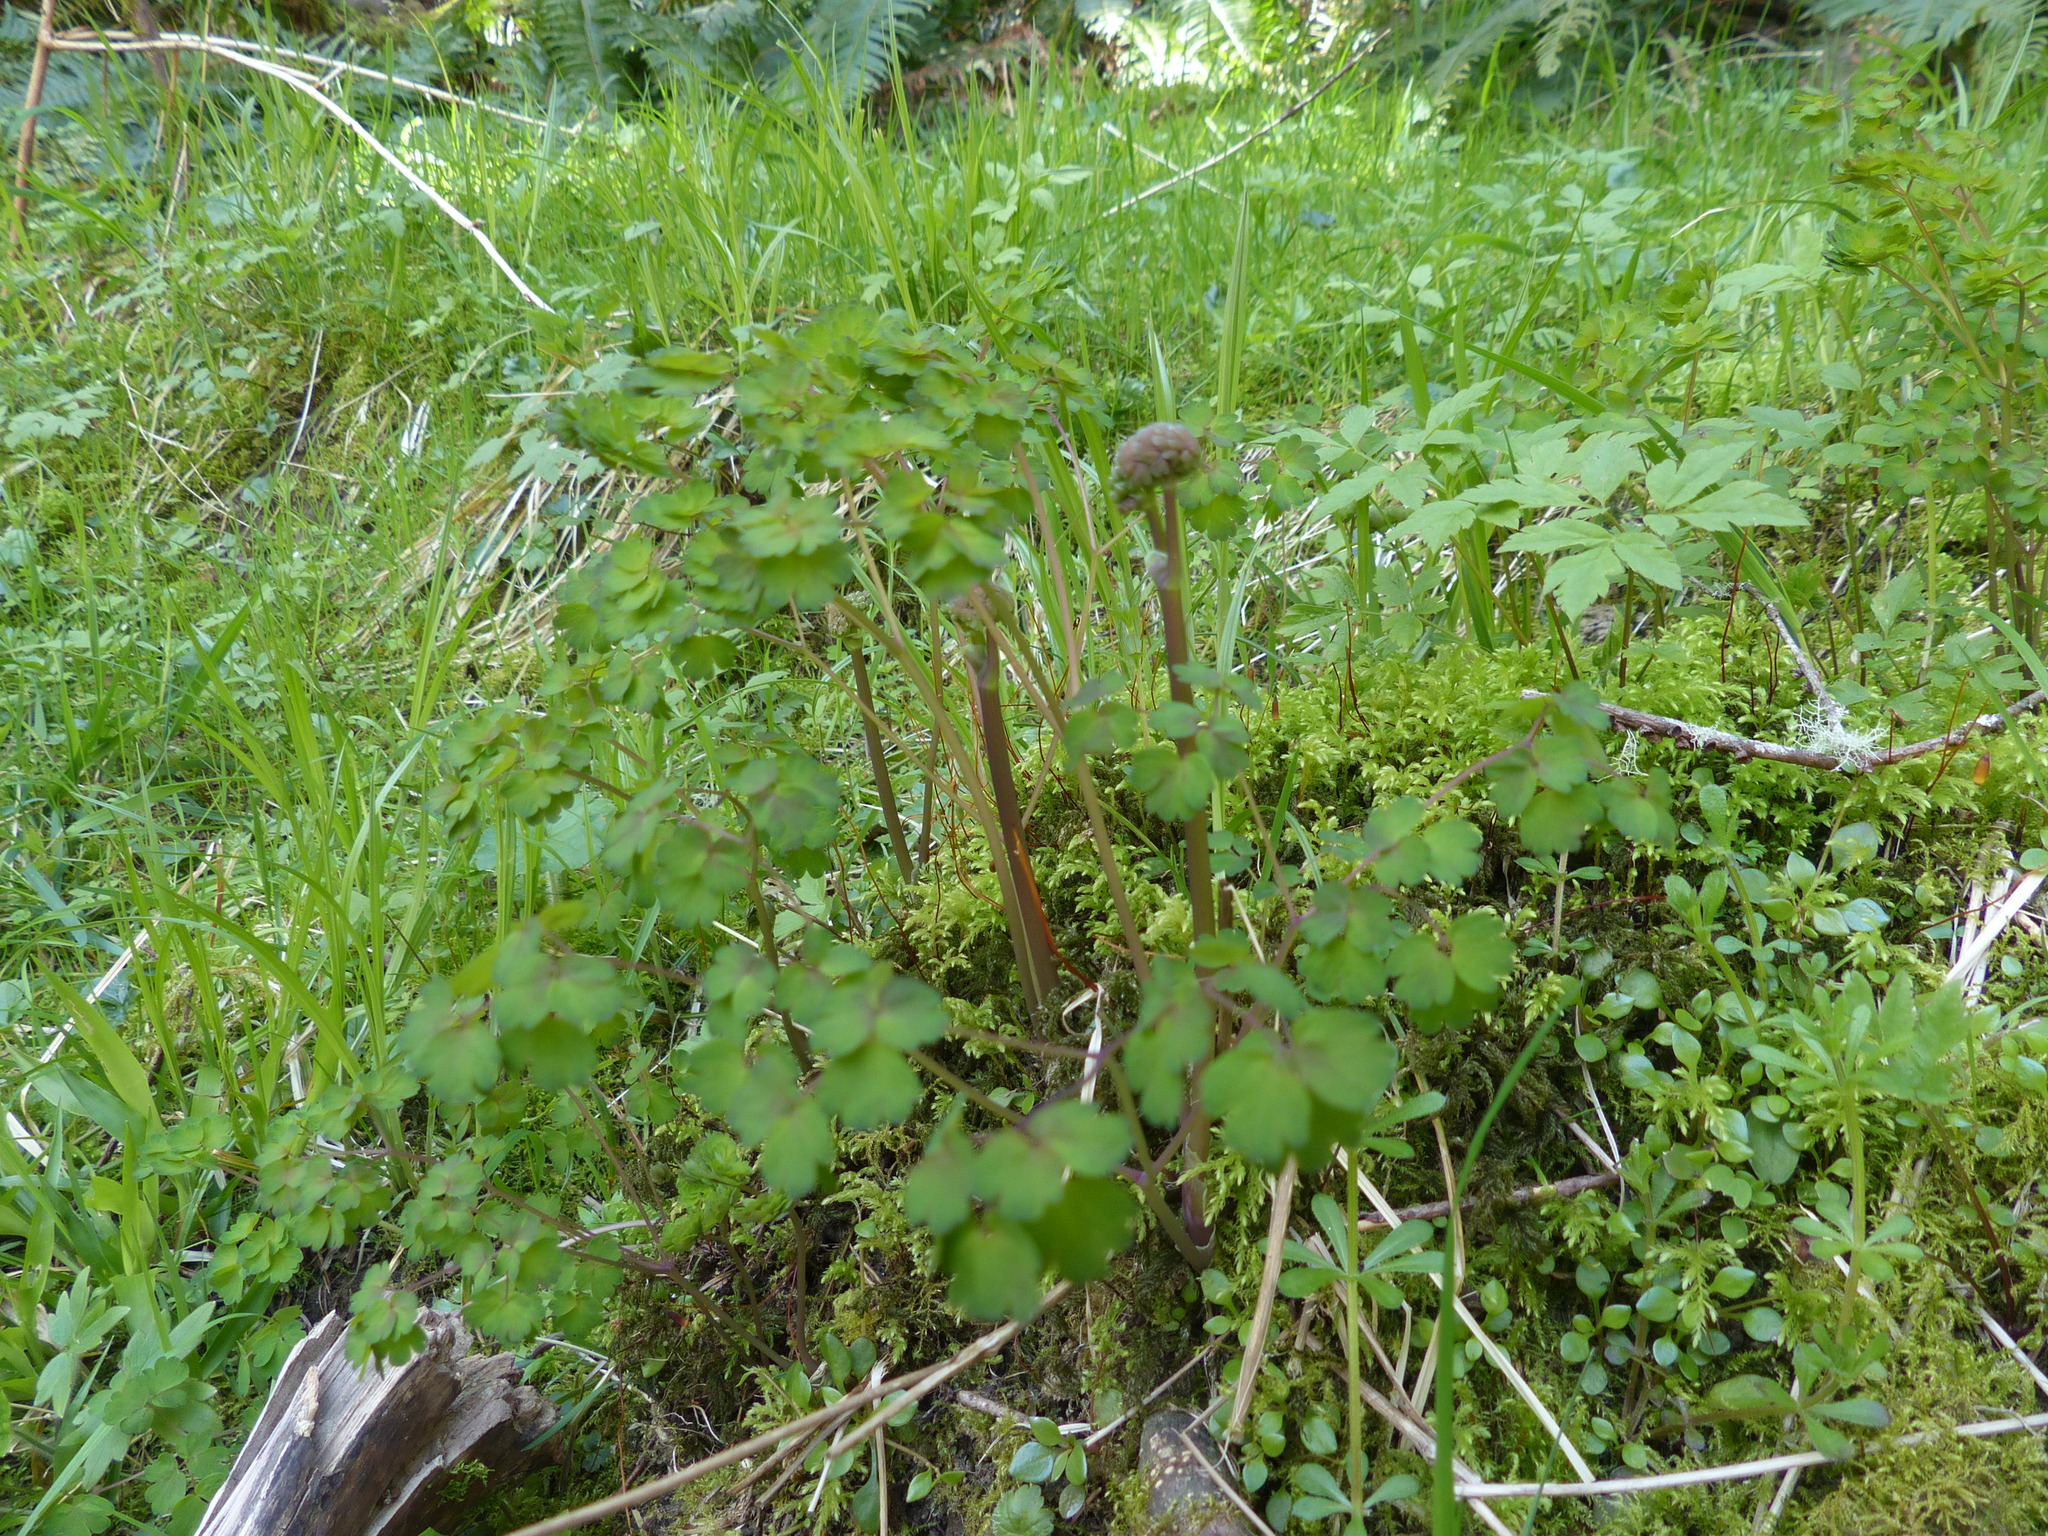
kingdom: Plantae
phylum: Tracheophyta
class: Magnoliopsida
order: Ranunculales
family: Ranunculaceae
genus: Thalictrum
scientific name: Thalictrum occidentale
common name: Western meadow-rue
